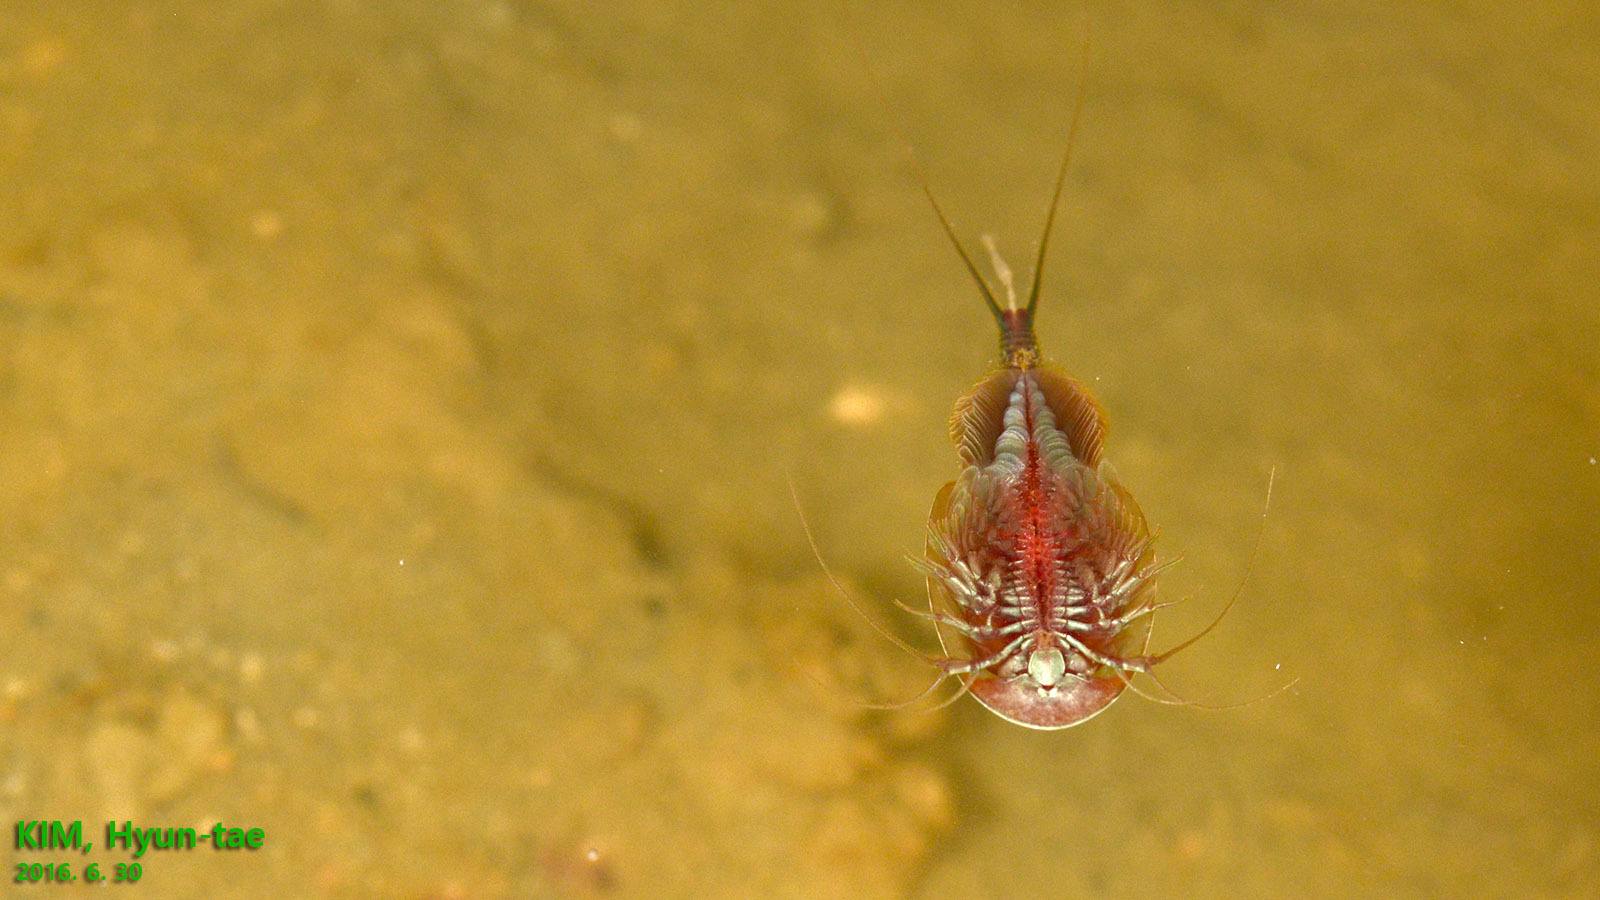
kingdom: Animalia
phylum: Arthropoda
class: Branchiopoda
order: Notostraca
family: Triopsidae
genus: Triops
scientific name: Triops granarius
